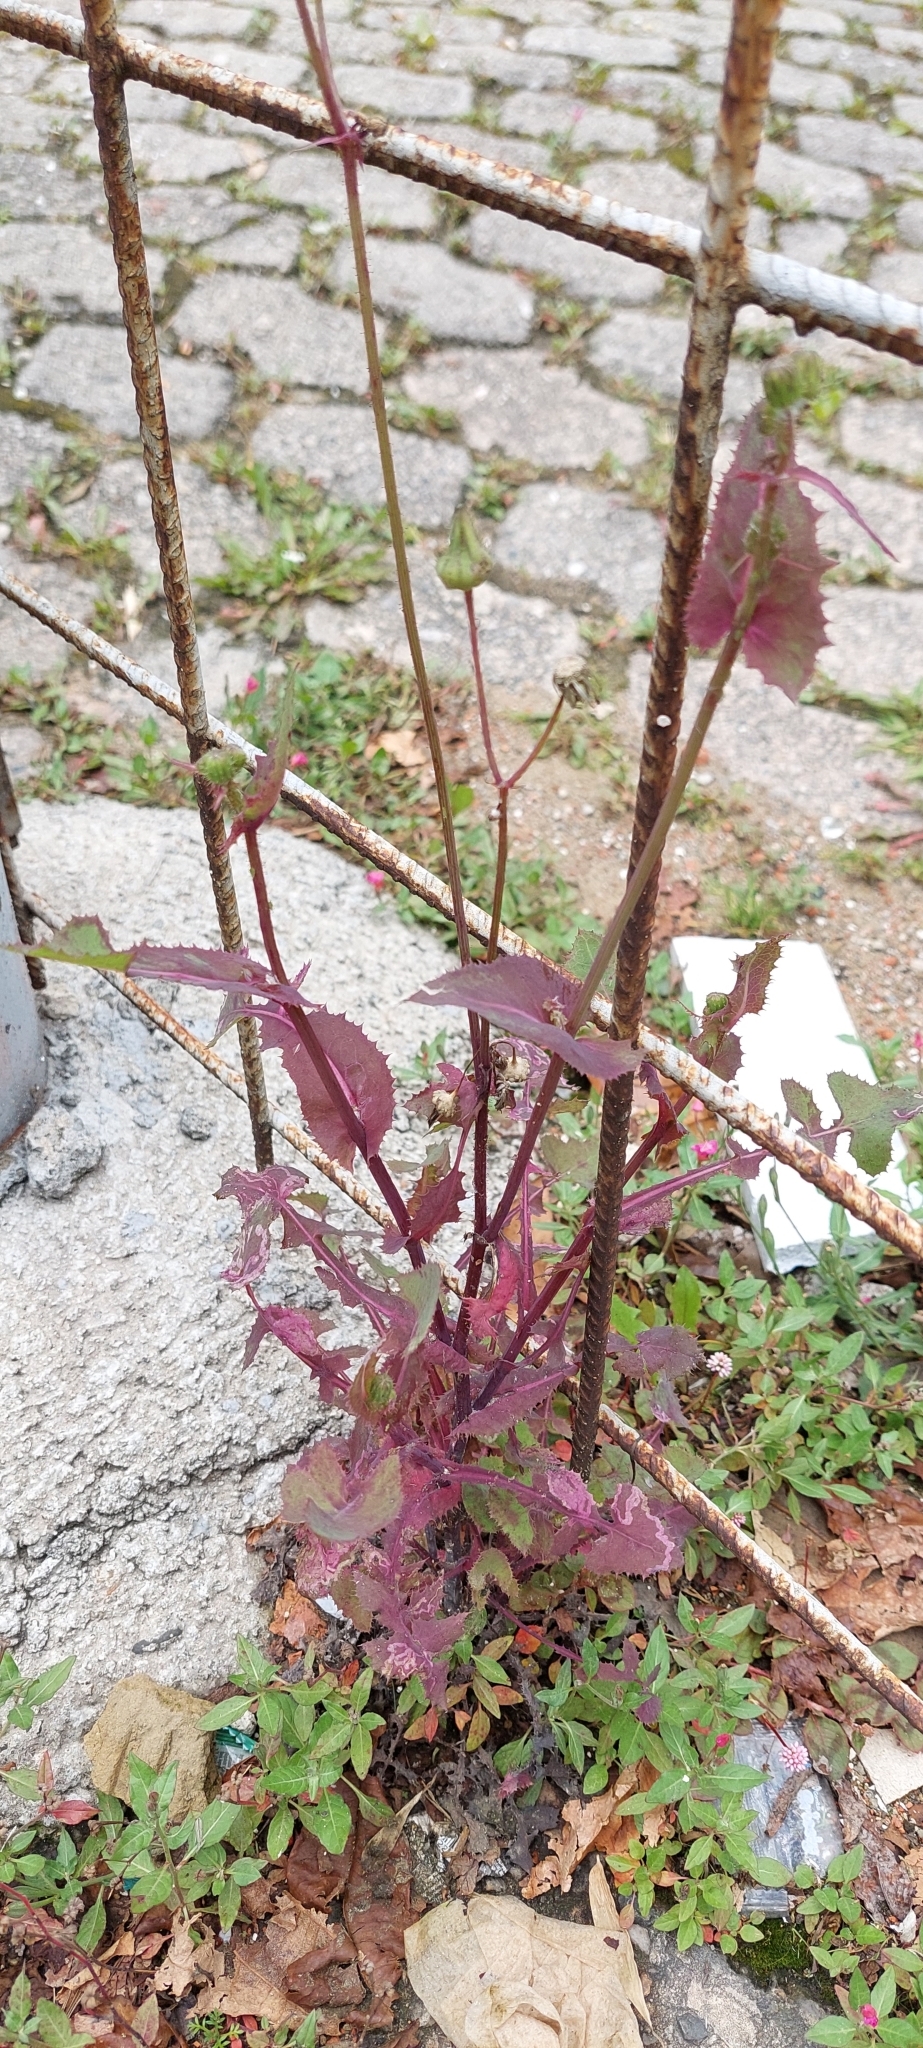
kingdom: Plantae
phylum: Tracheophyta
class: Magnoliopsida
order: Asterales
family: Asteraceae
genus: Sonchus
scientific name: Sonchus oleraceus
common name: Common sowthistle
